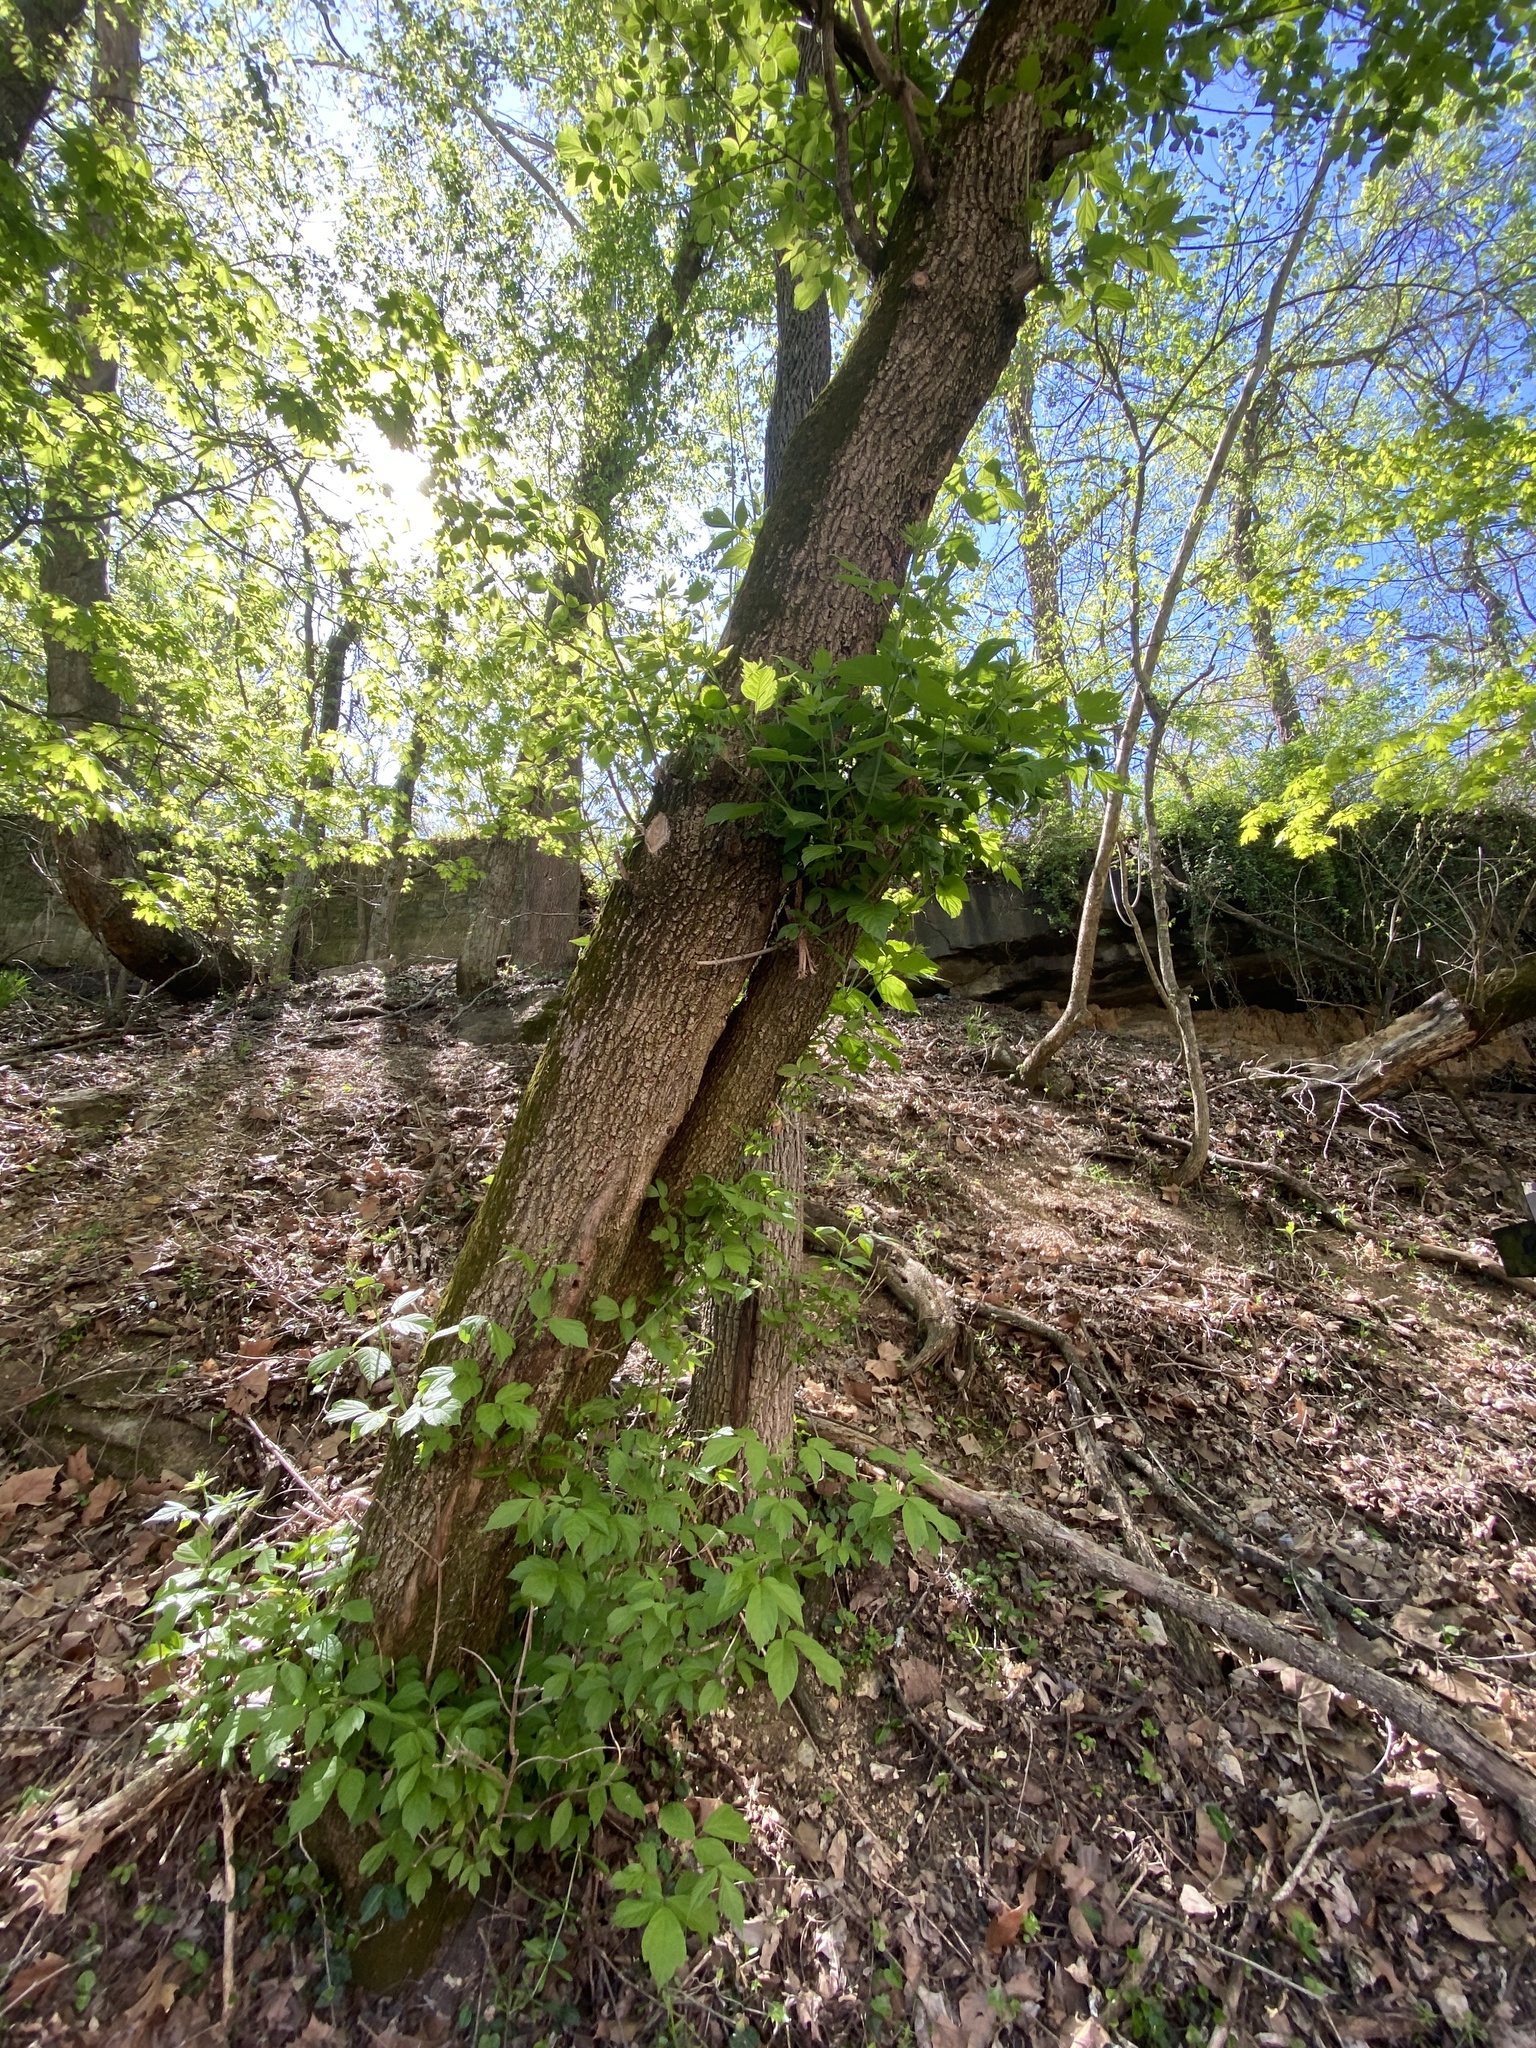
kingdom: Plantae
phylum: Tracheophyta
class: Magnoliopsida
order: Sapindales
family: Sapindaceae
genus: Acer
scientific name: Acer negundo
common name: Ashleaf maple
